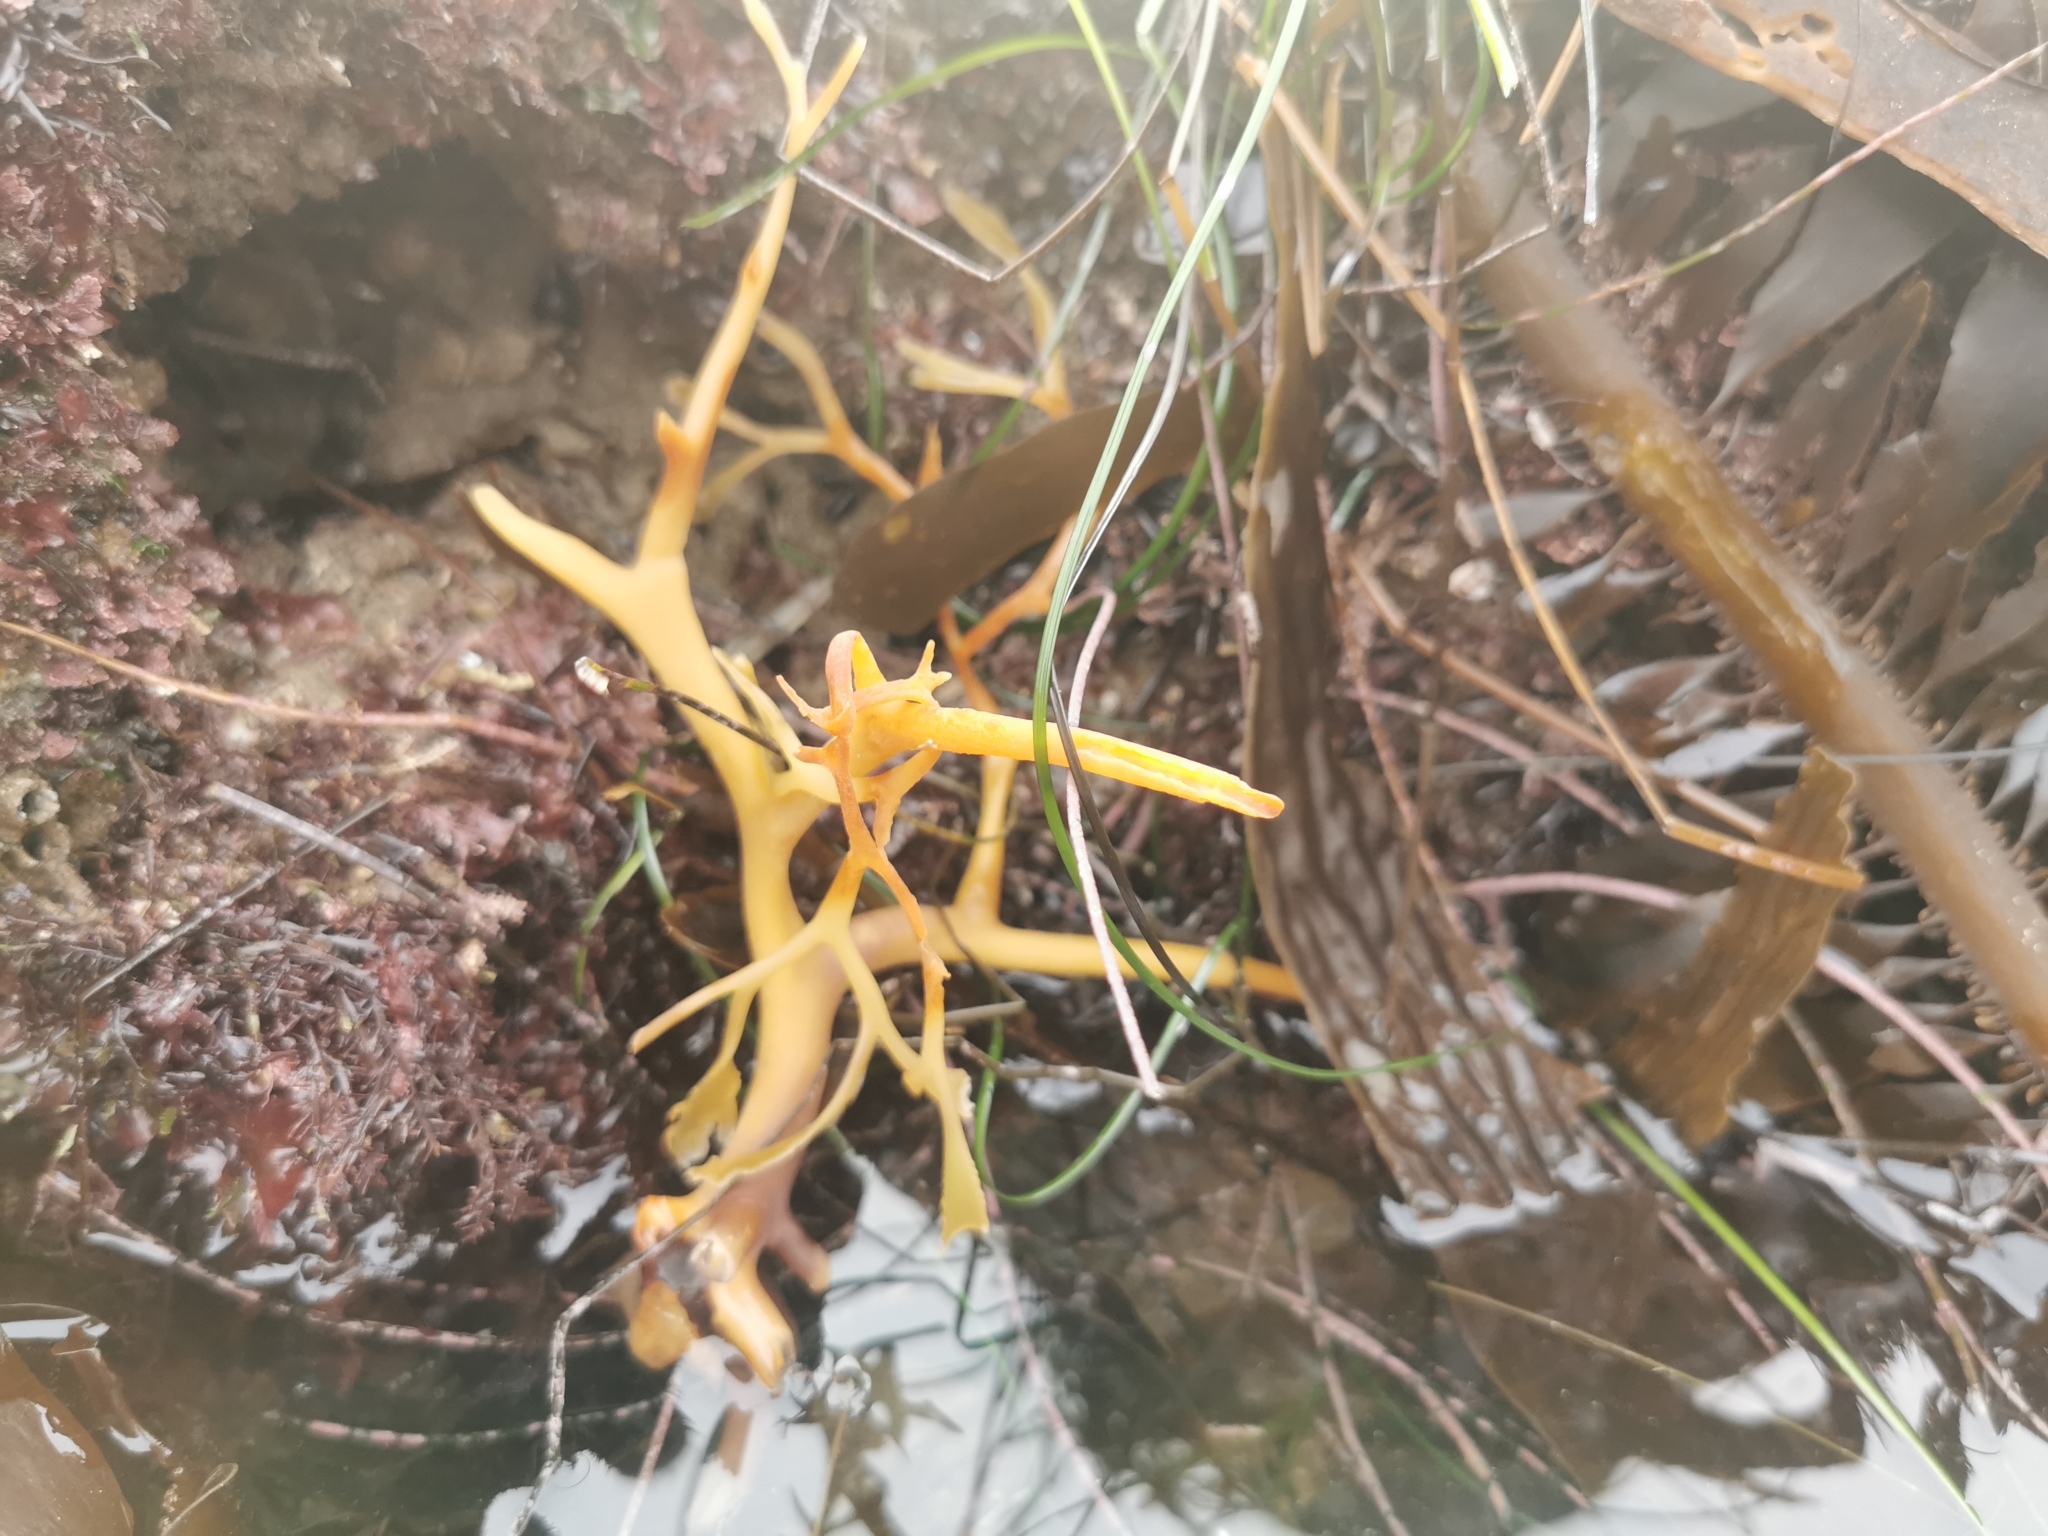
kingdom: Chromista
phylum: Ochrophyta
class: Phaeophyceae
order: Laminariales
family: Laminariaceae
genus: Macrocystis
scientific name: Macrocystis pyrifera
